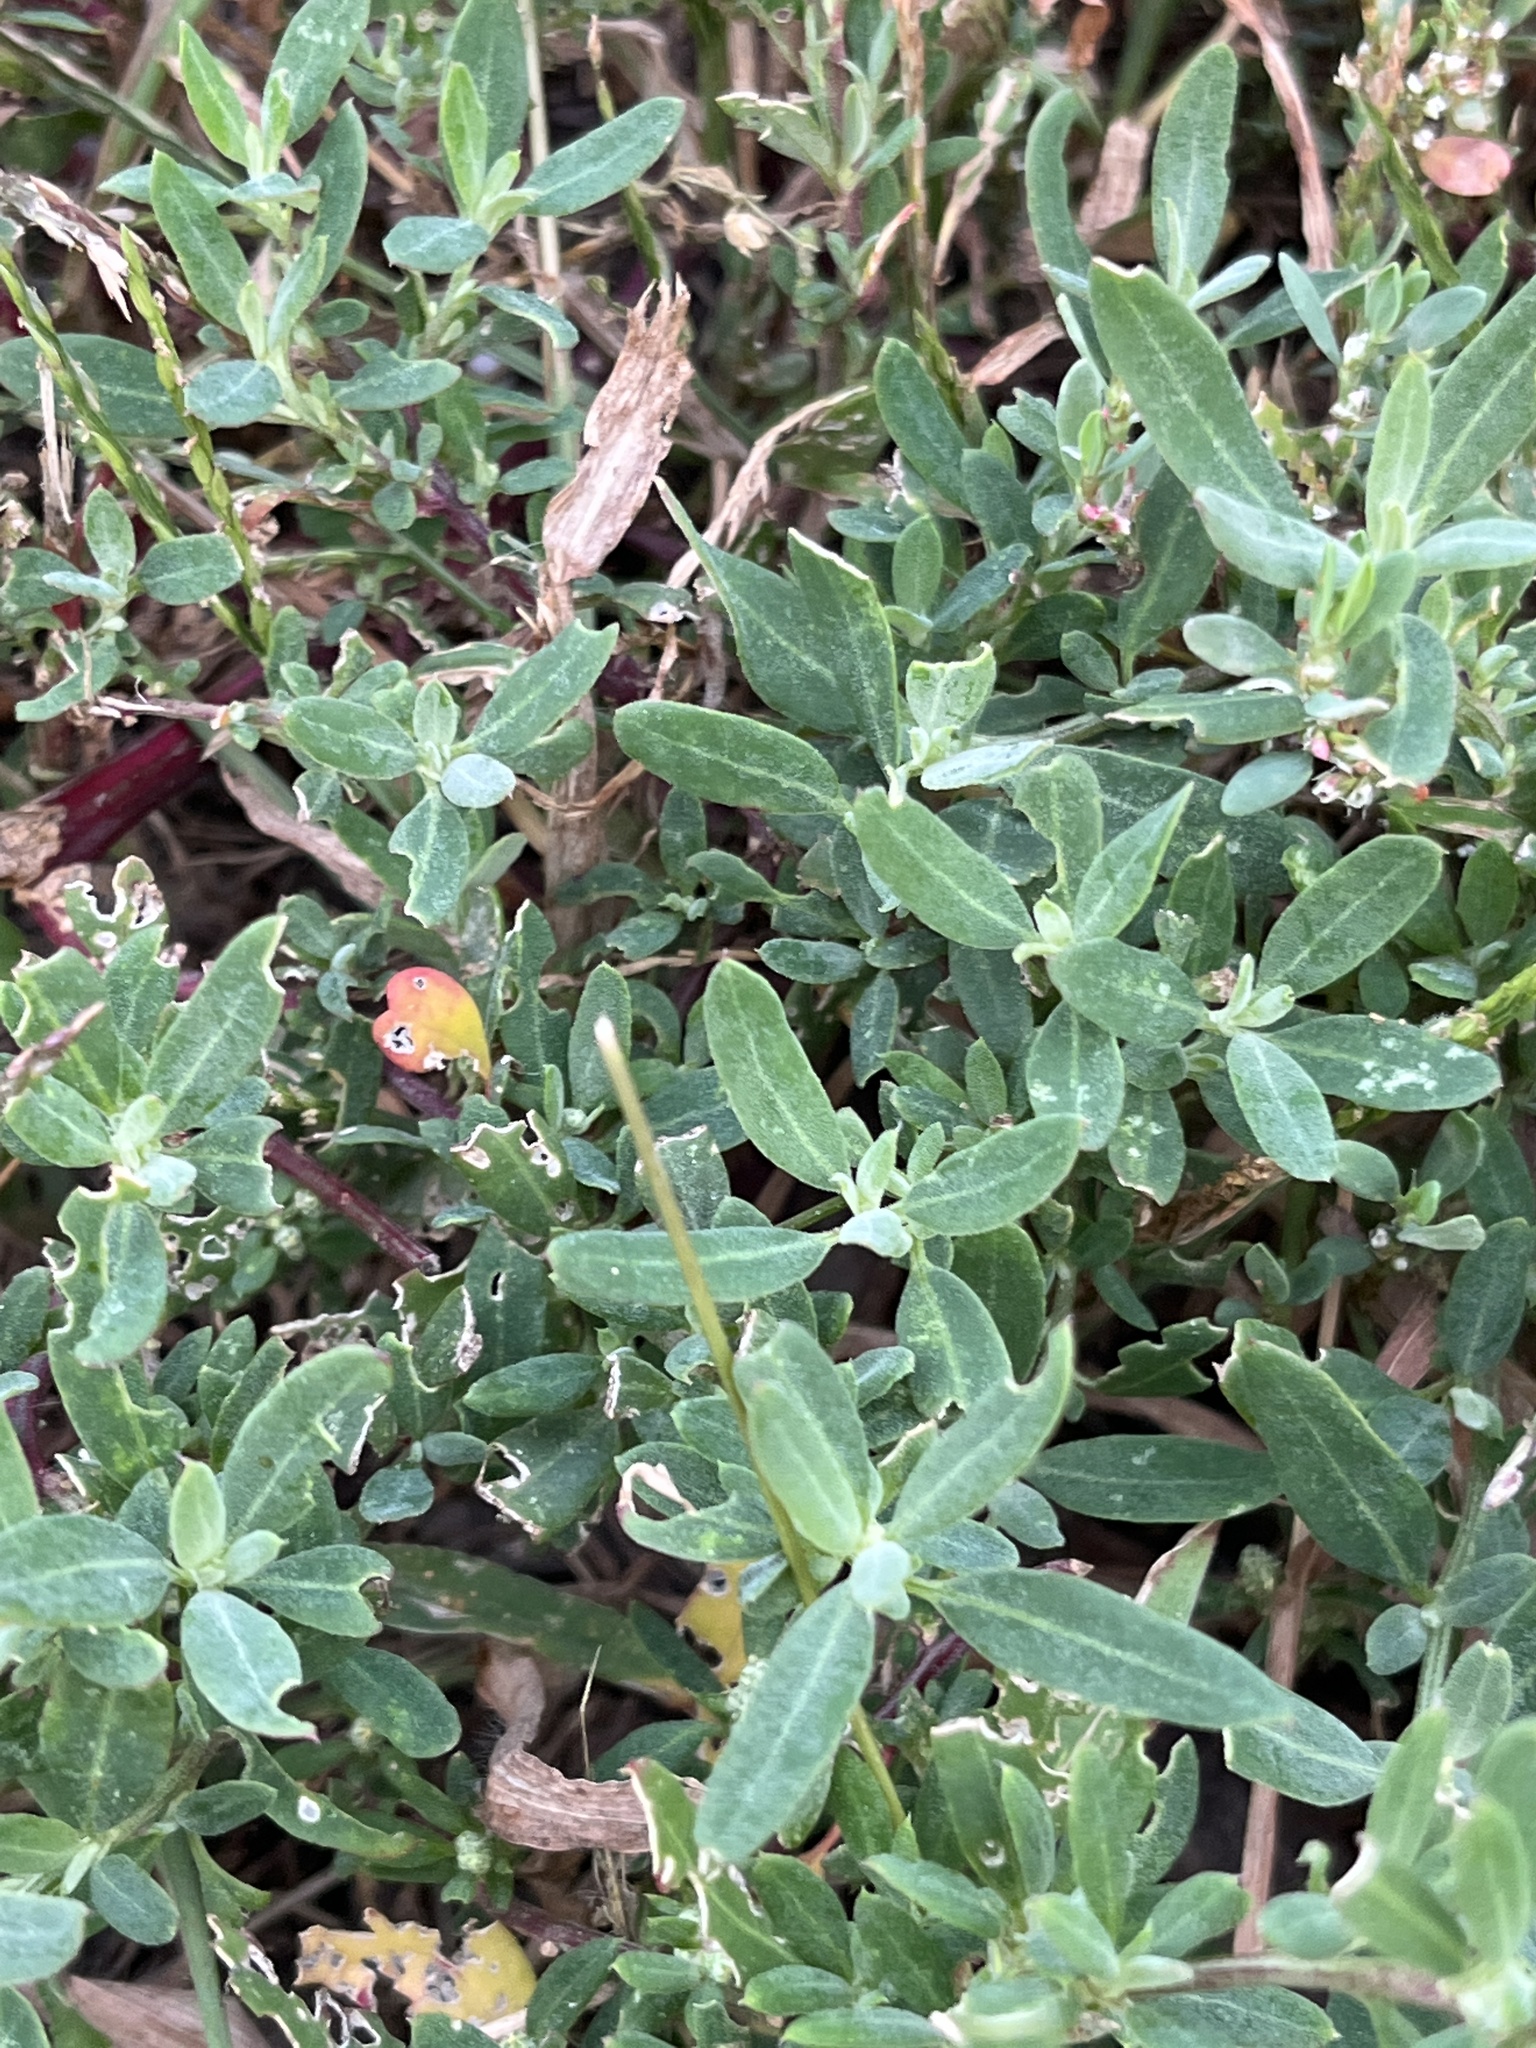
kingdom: Plantae
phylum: Tracheophyta
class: Magnoliopsida
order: Caryophyllales
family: Amaranthaceae
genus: Chenopodium
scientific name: Chenopodium album
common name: Fat-hen
